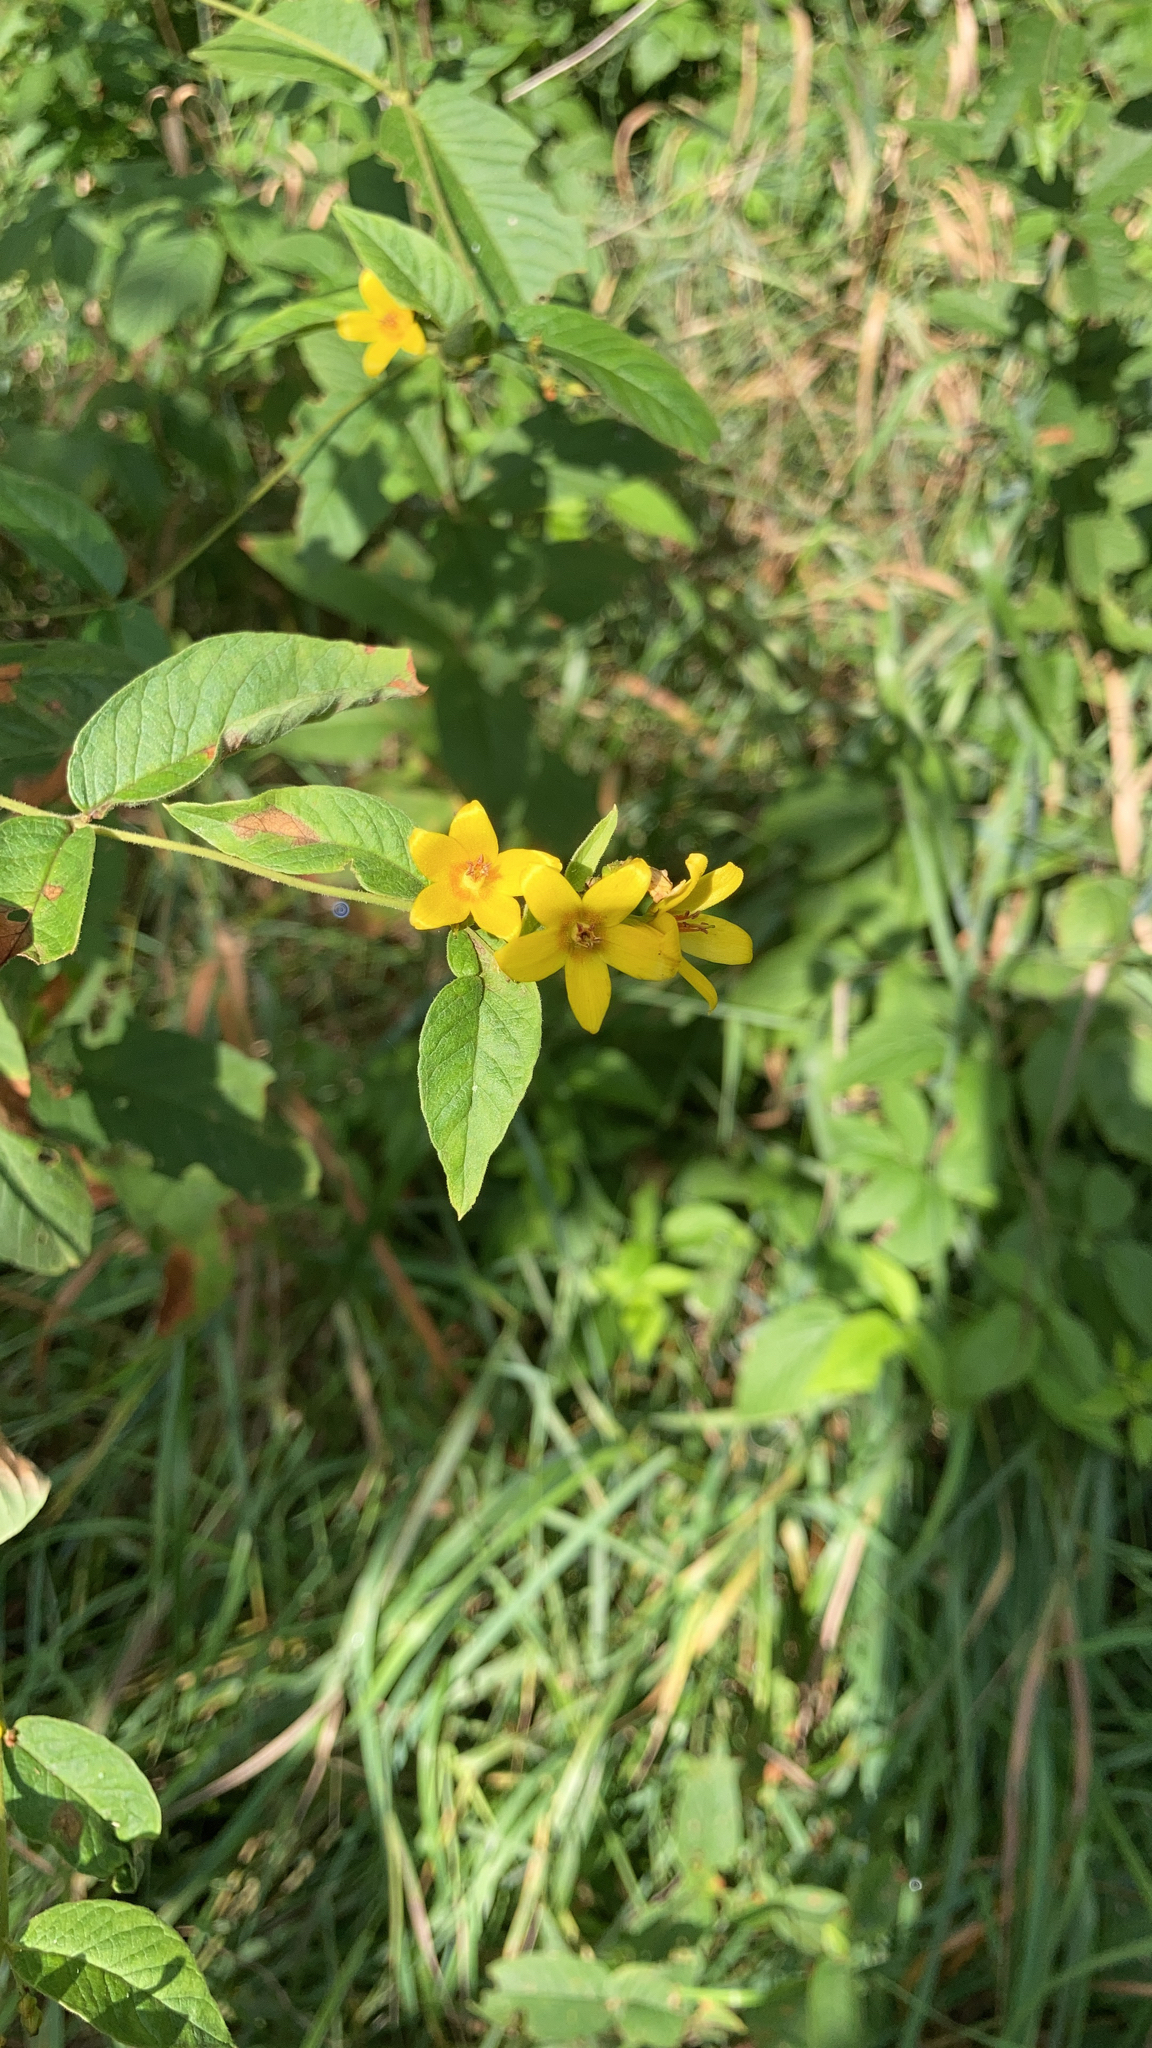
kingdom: Plantae
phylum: Tracheophyta
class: Magnoliopsida
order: Ericales
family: Primulaceae
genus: Lysimachia
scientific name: Lysimachia vulgaris
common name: Yellow loosestrife
